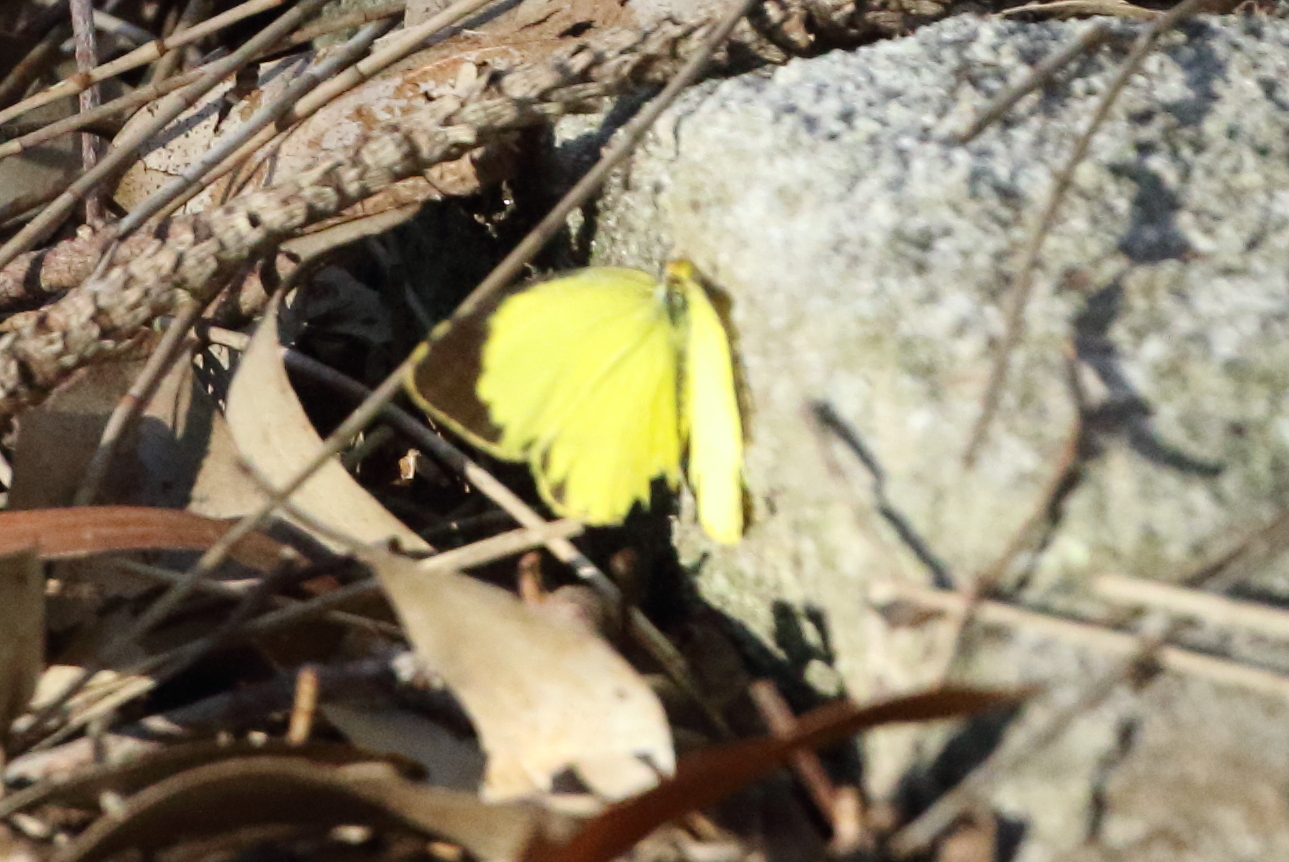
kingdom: Animalia
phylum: Arthropoda
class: Insecta
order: Lepidoptera
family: Pieridae
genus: Eurema
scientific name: Eurema brigitta
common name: Small grass yellow
